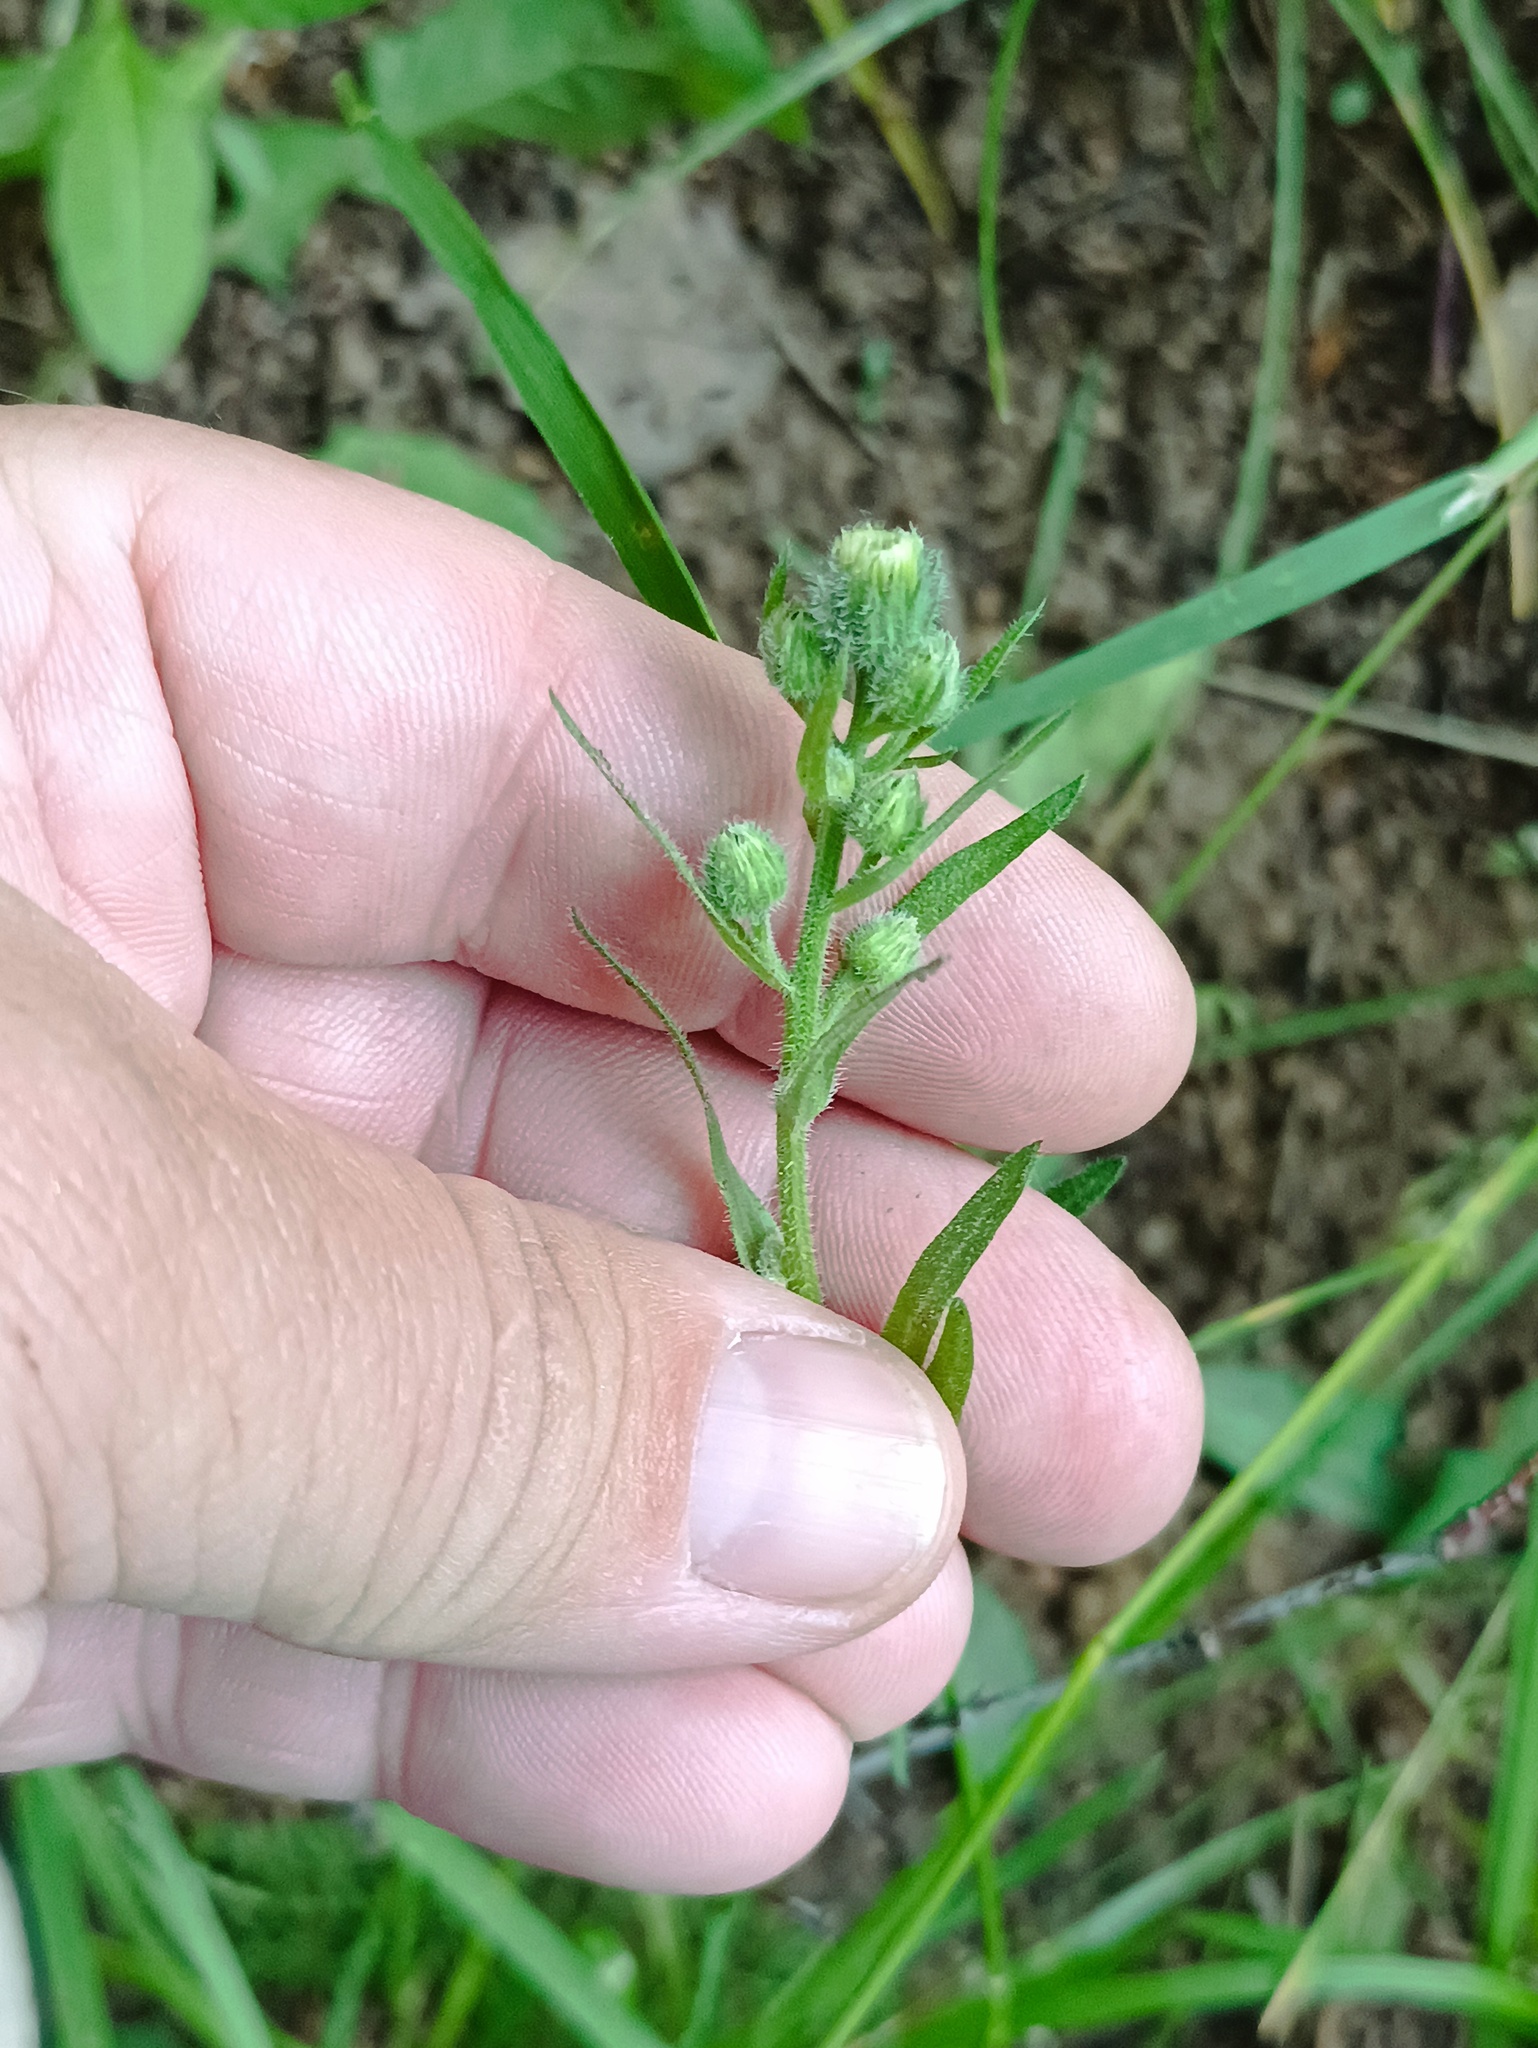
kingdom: Plantae
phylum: Tracheophyta
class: Magnoliopsida
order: Asterales
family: Asteraceae
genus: Erigeron
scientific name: Erigeron acris
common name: Blue fleabane
